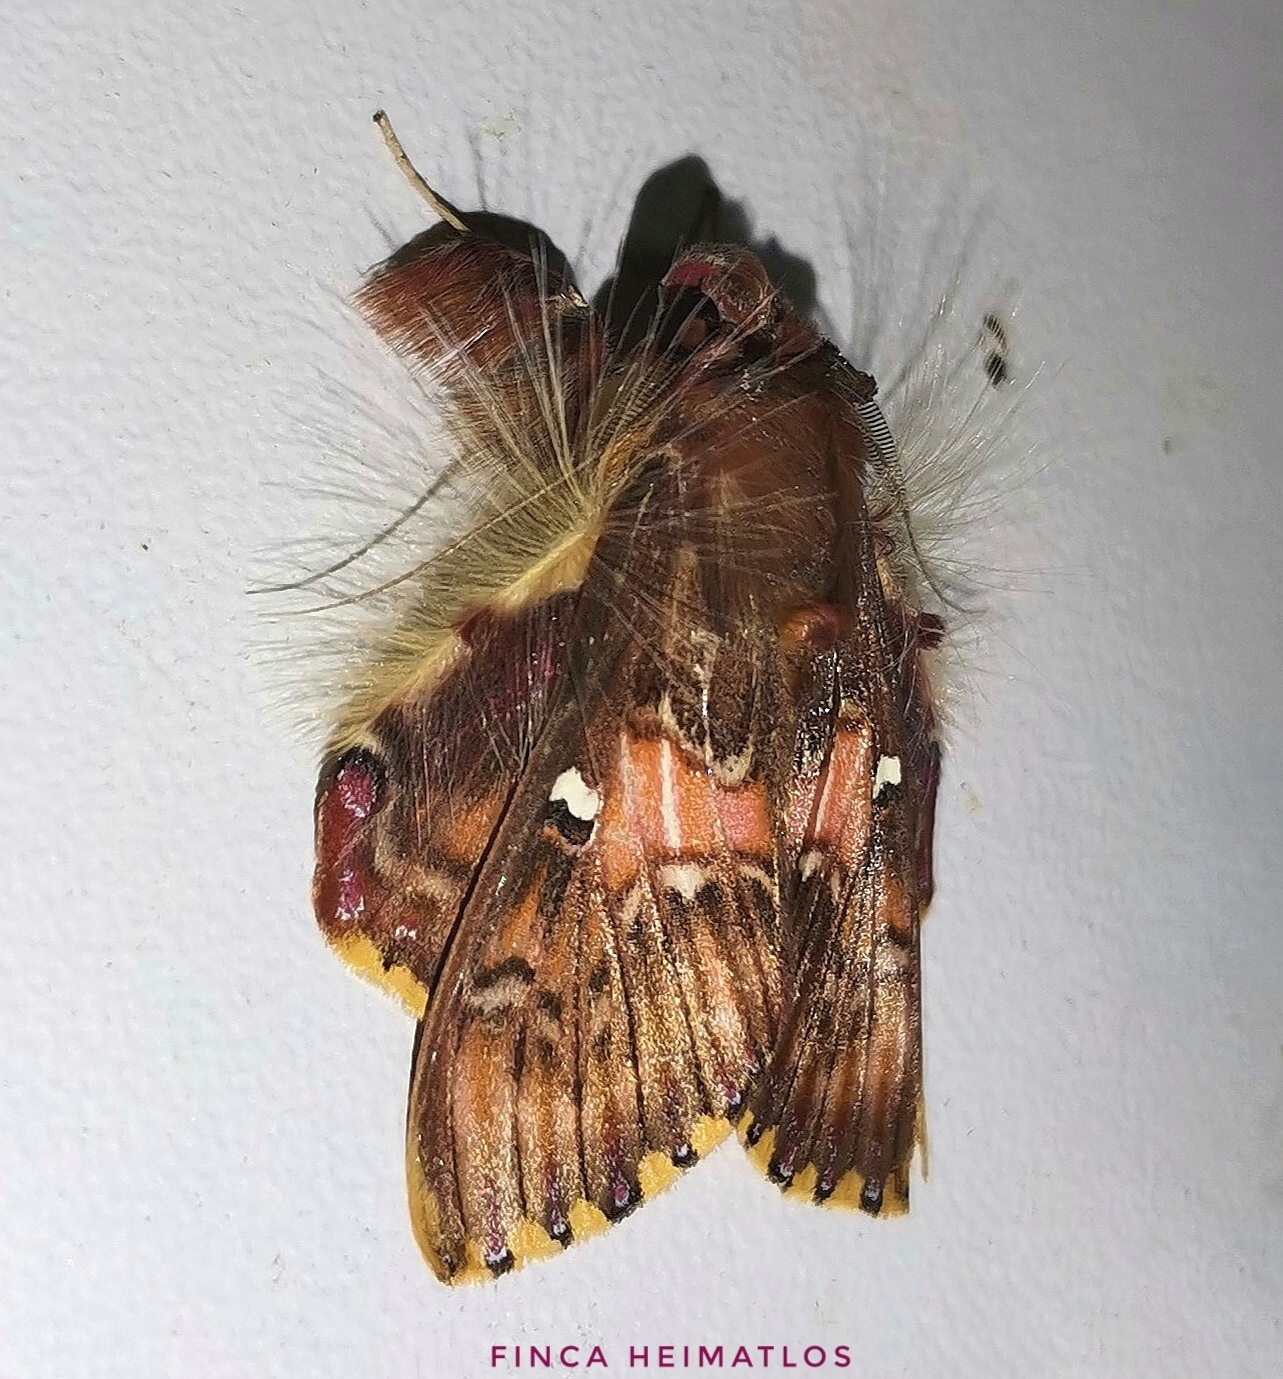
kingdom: Animalia
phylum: Arthropoda
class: Insecta
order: Lepidoptera
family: Erebidae
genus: Sosxetra
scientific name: Sosxetra grata
